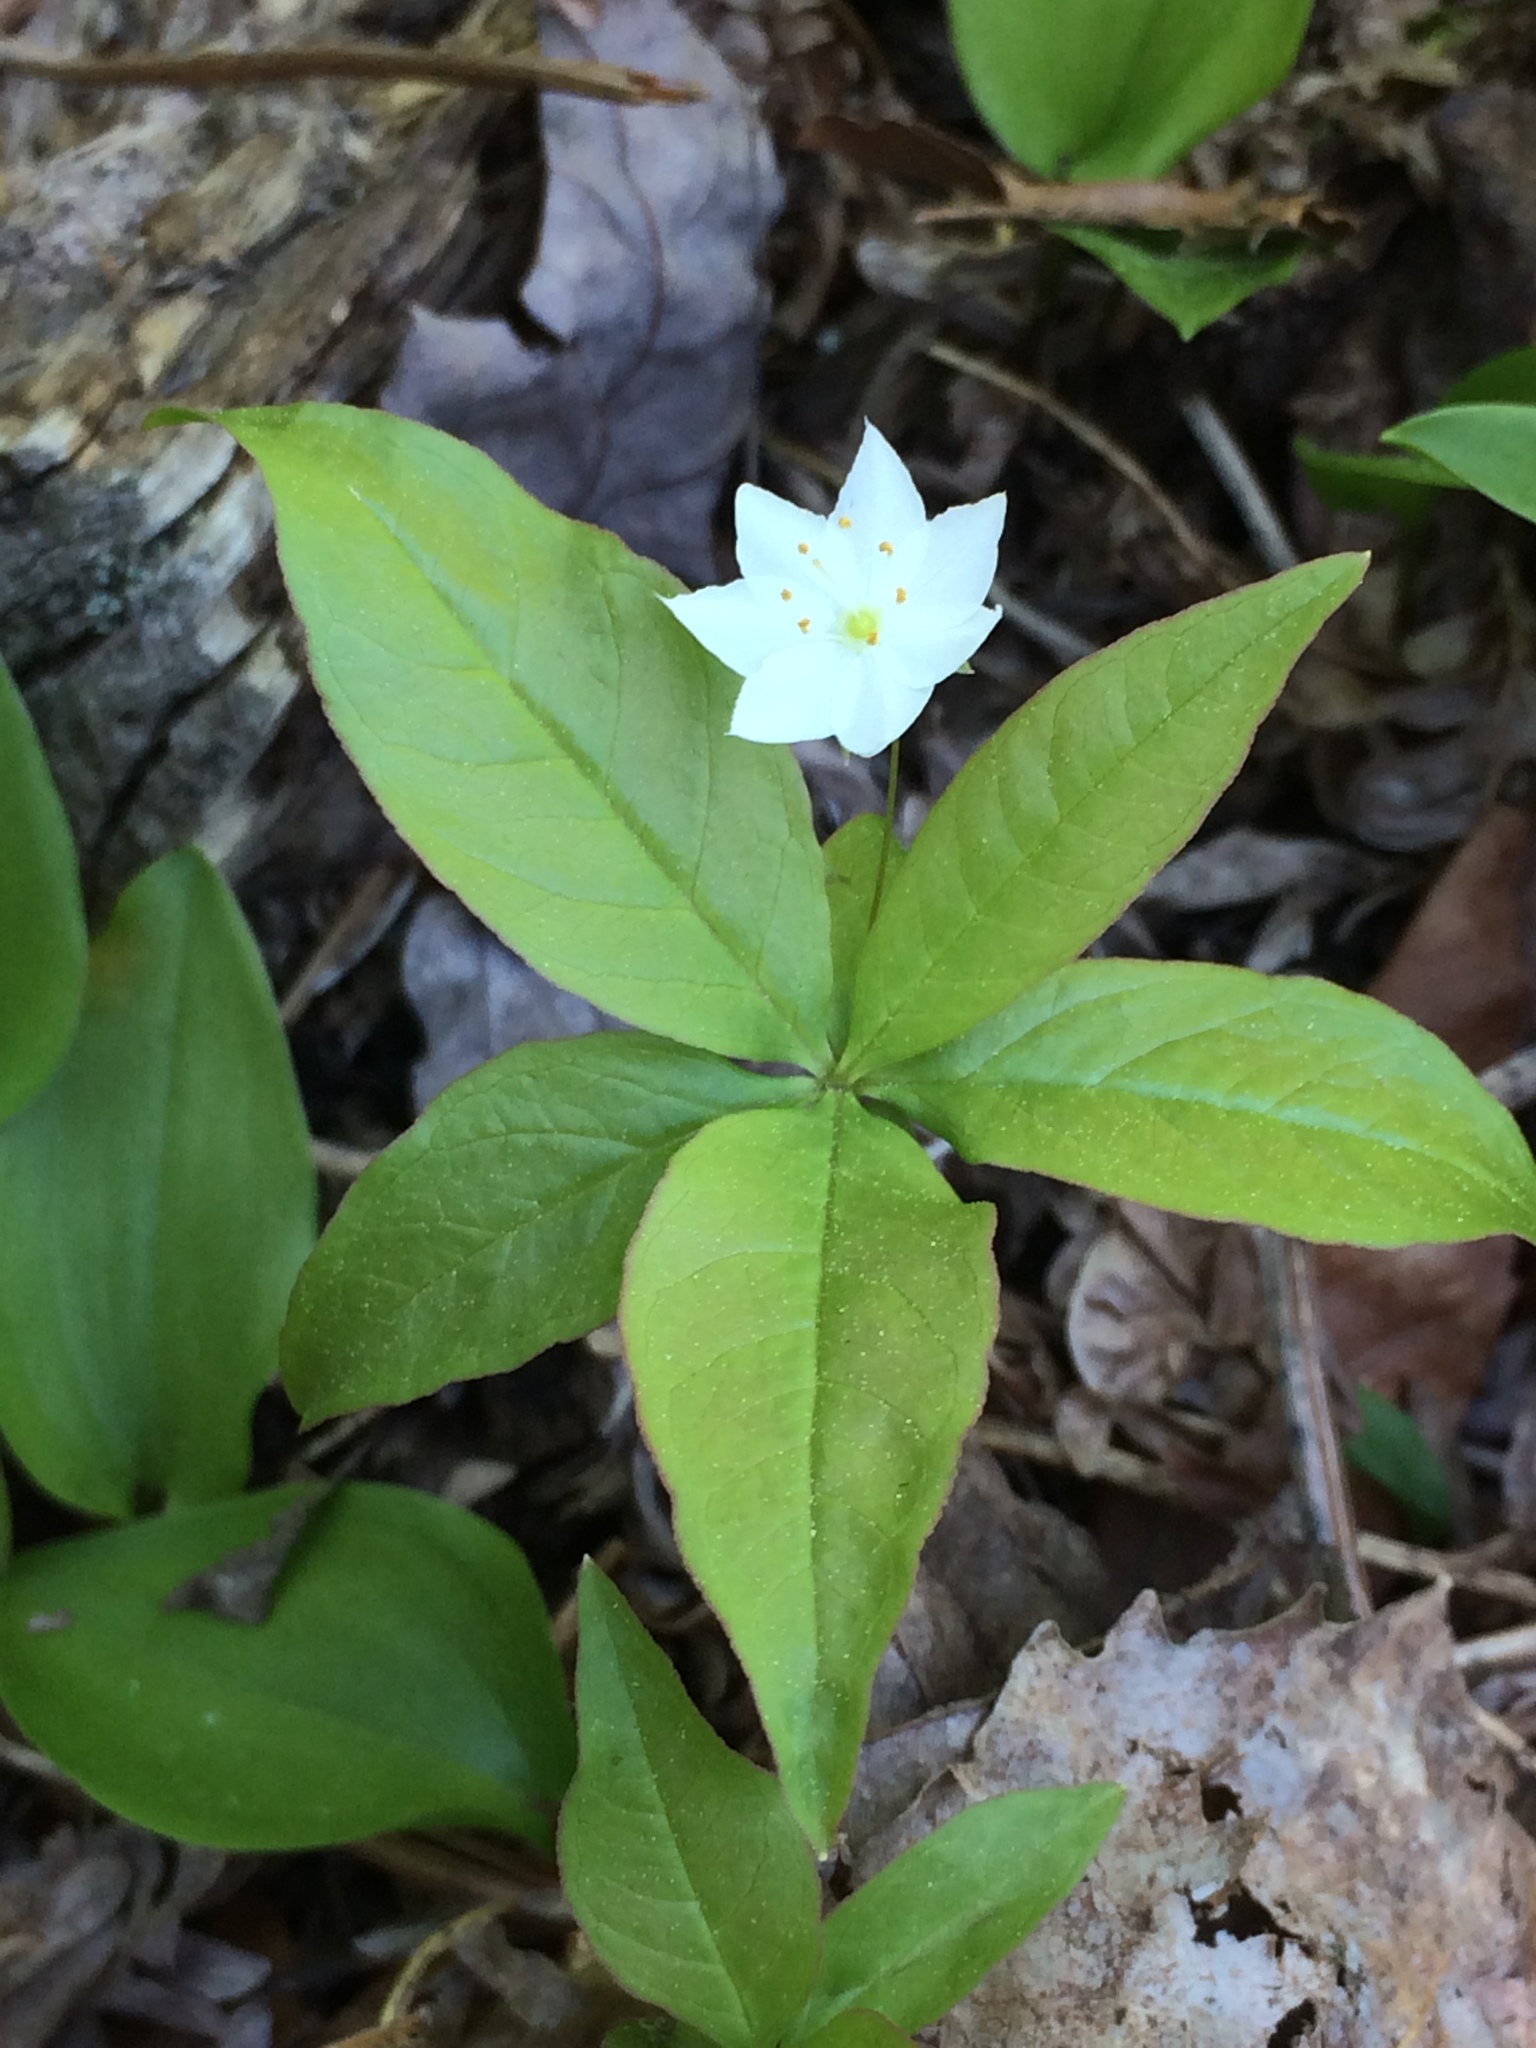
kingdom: Plantae
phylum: Tracheophyta
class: Magnoliopsida
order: Ericales
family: Primulaceae
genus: Lysimachia
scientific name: Lysimachia borealis
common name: American starflower
